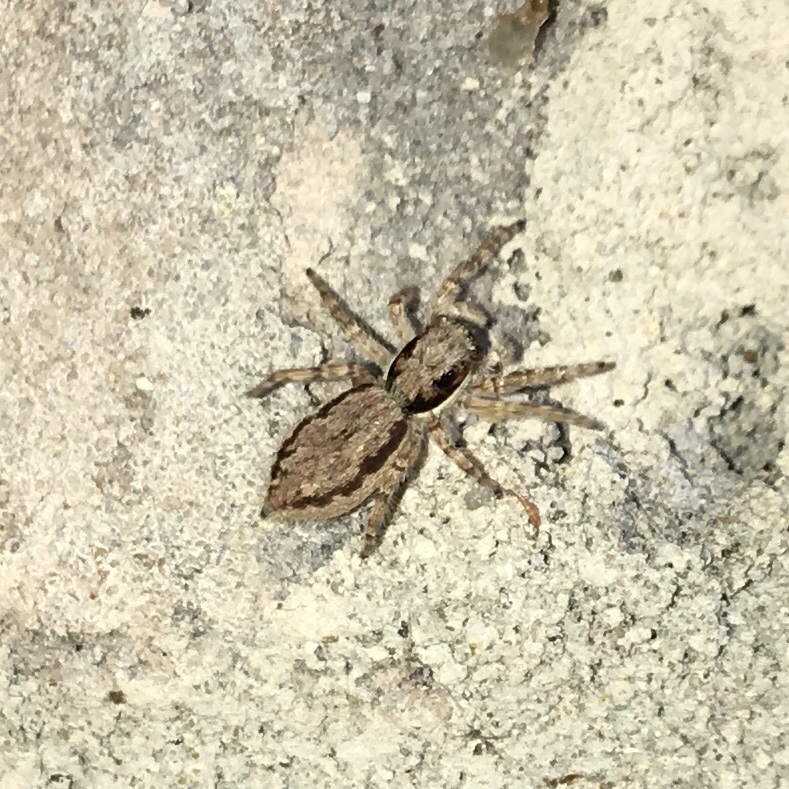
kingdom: Animalia
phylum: Arthropoda
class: Arachnida
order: Araneae
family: Salticidae
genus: Menemerus
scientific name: Menemerus bivittatus
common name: Gray wall jumper
